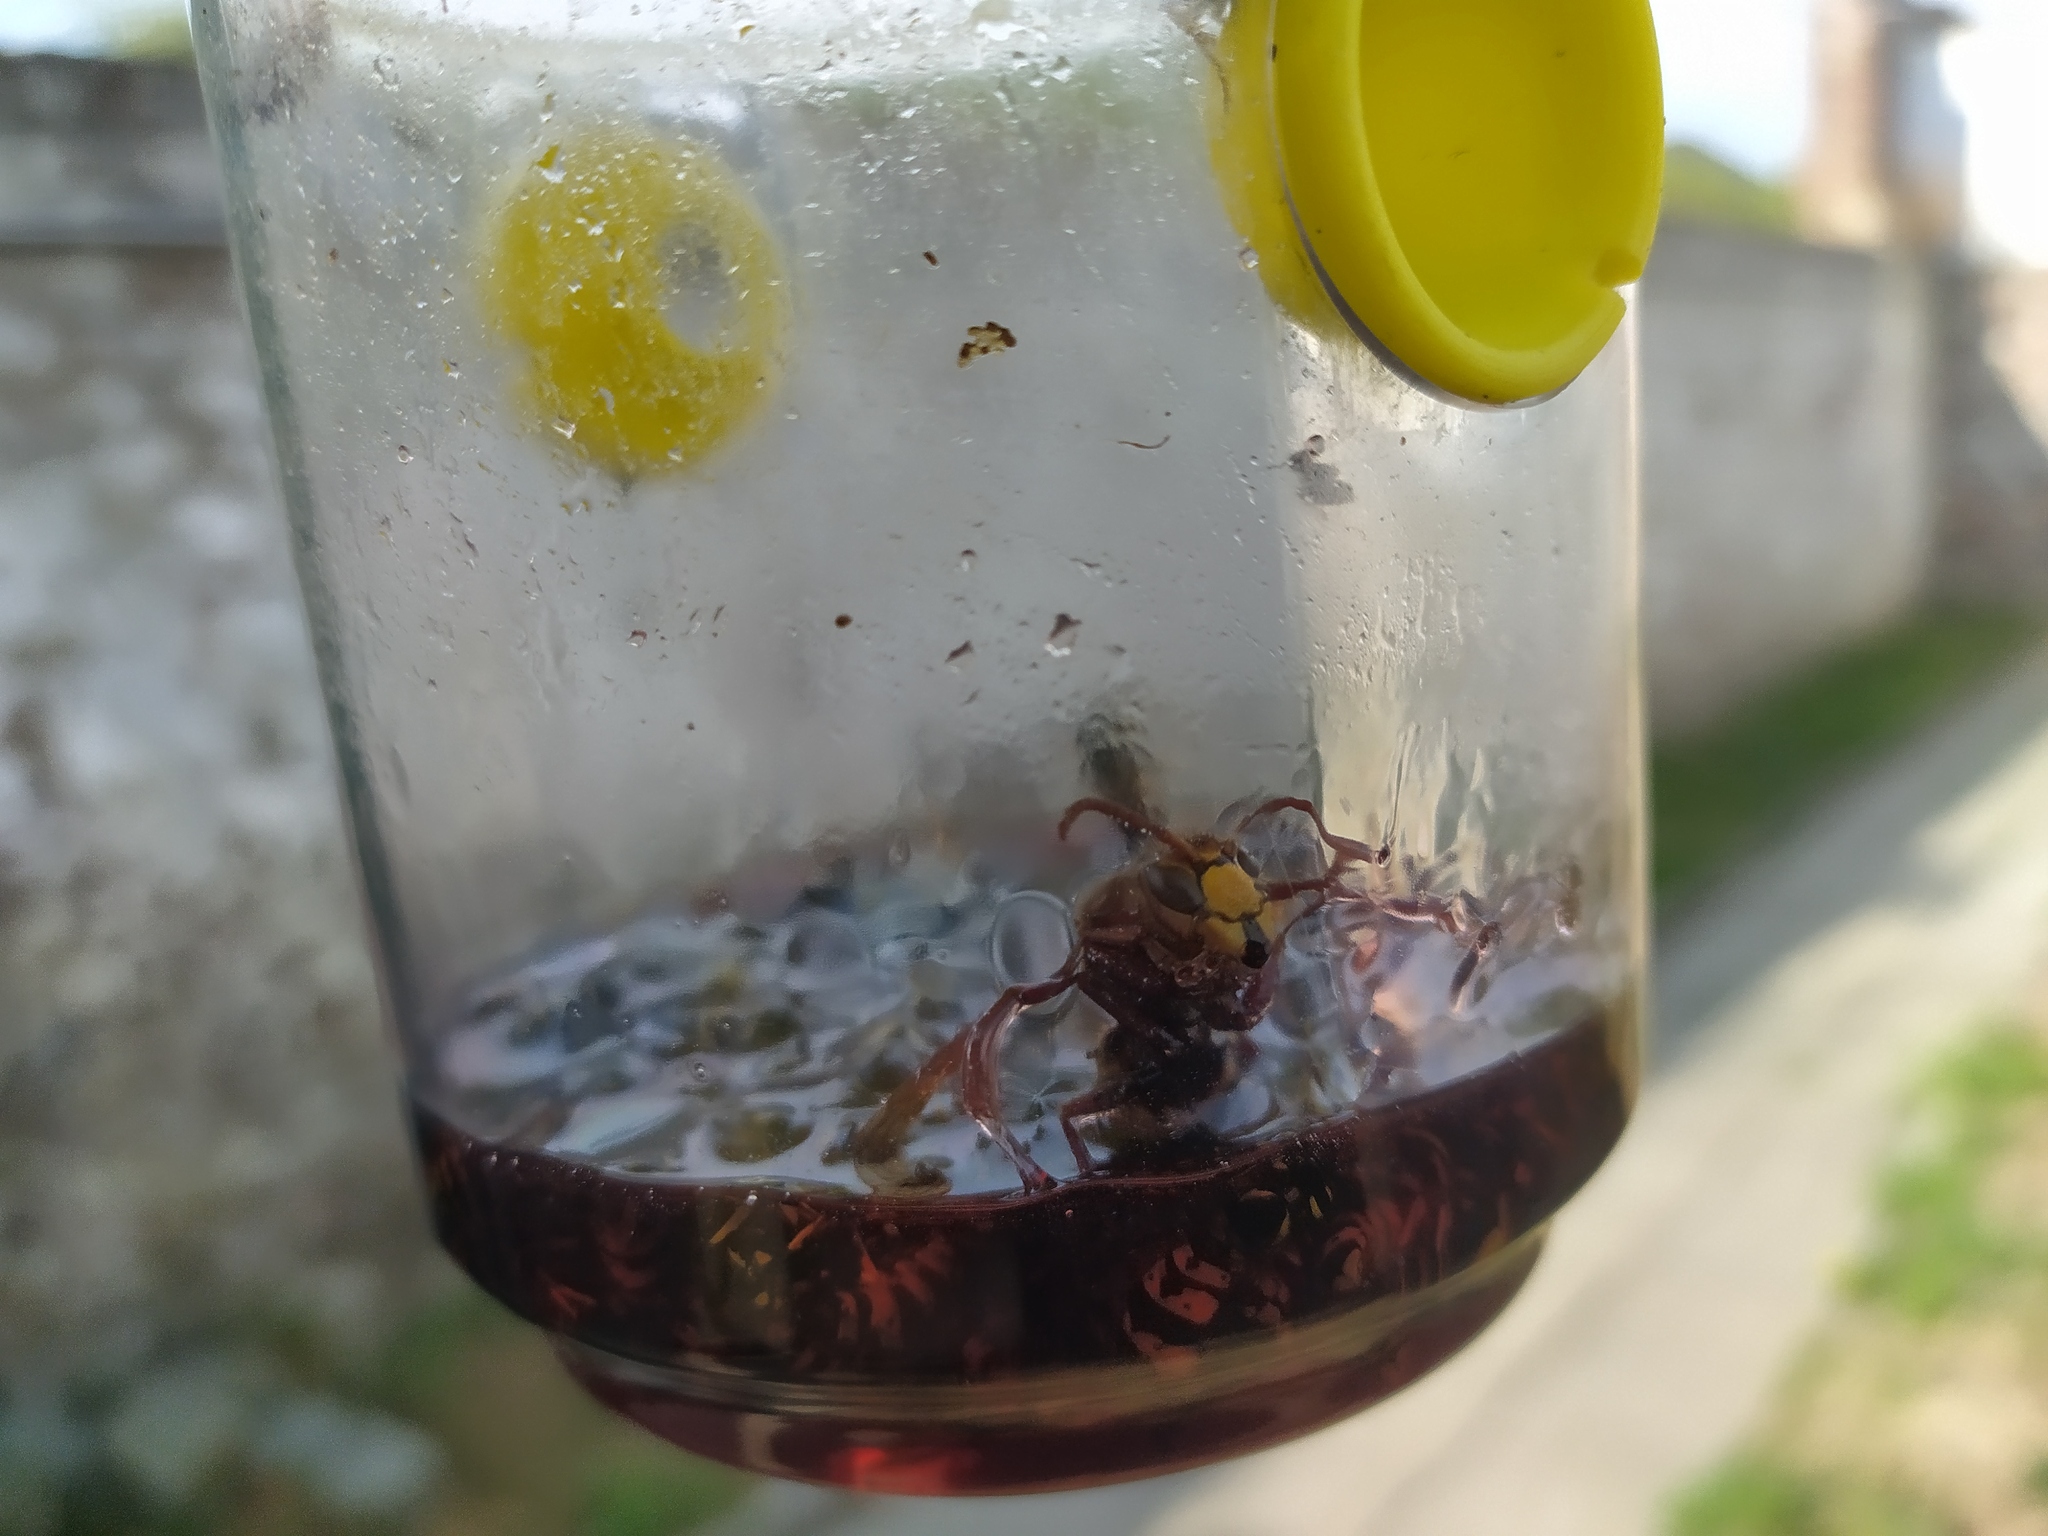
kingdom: Animalia
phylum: Arthropoda
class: Insecta
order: Hymenoptera
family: Vespidae
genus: Vespa
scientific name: Vespa crabro
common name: Hornet
